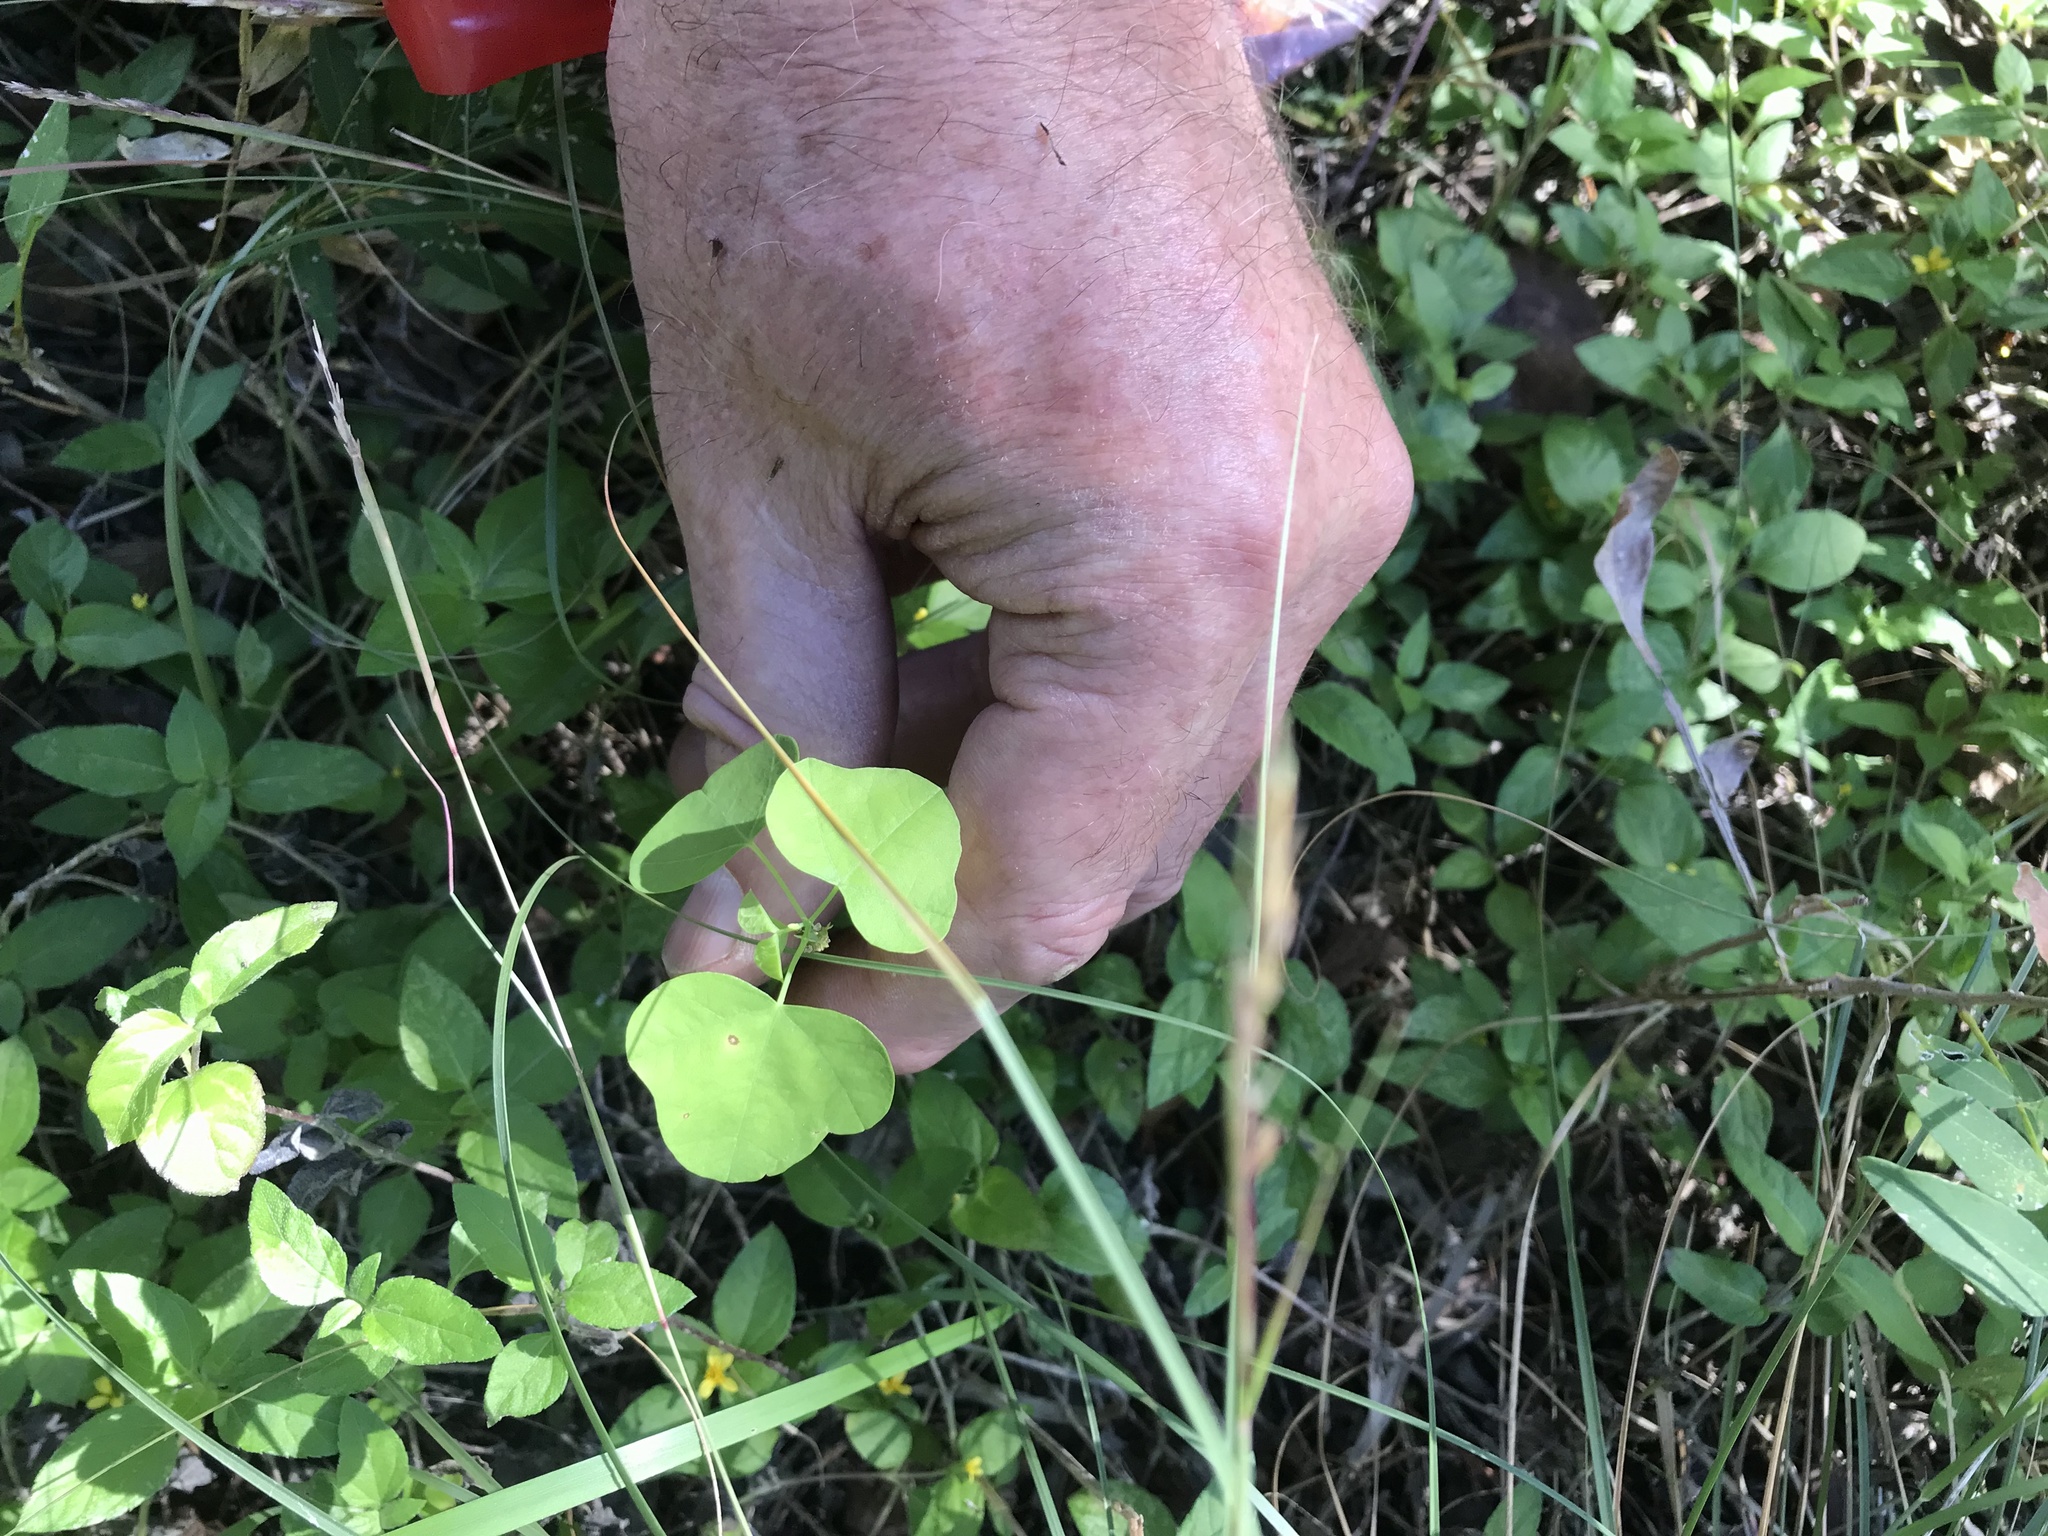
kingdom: Plantae
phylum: Tracheophyta
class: Magnoliopsida
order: Malpighiales
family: Passifloraceae
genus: Passiflora
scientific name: Passiflora lutea
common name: Yellow passionflower
